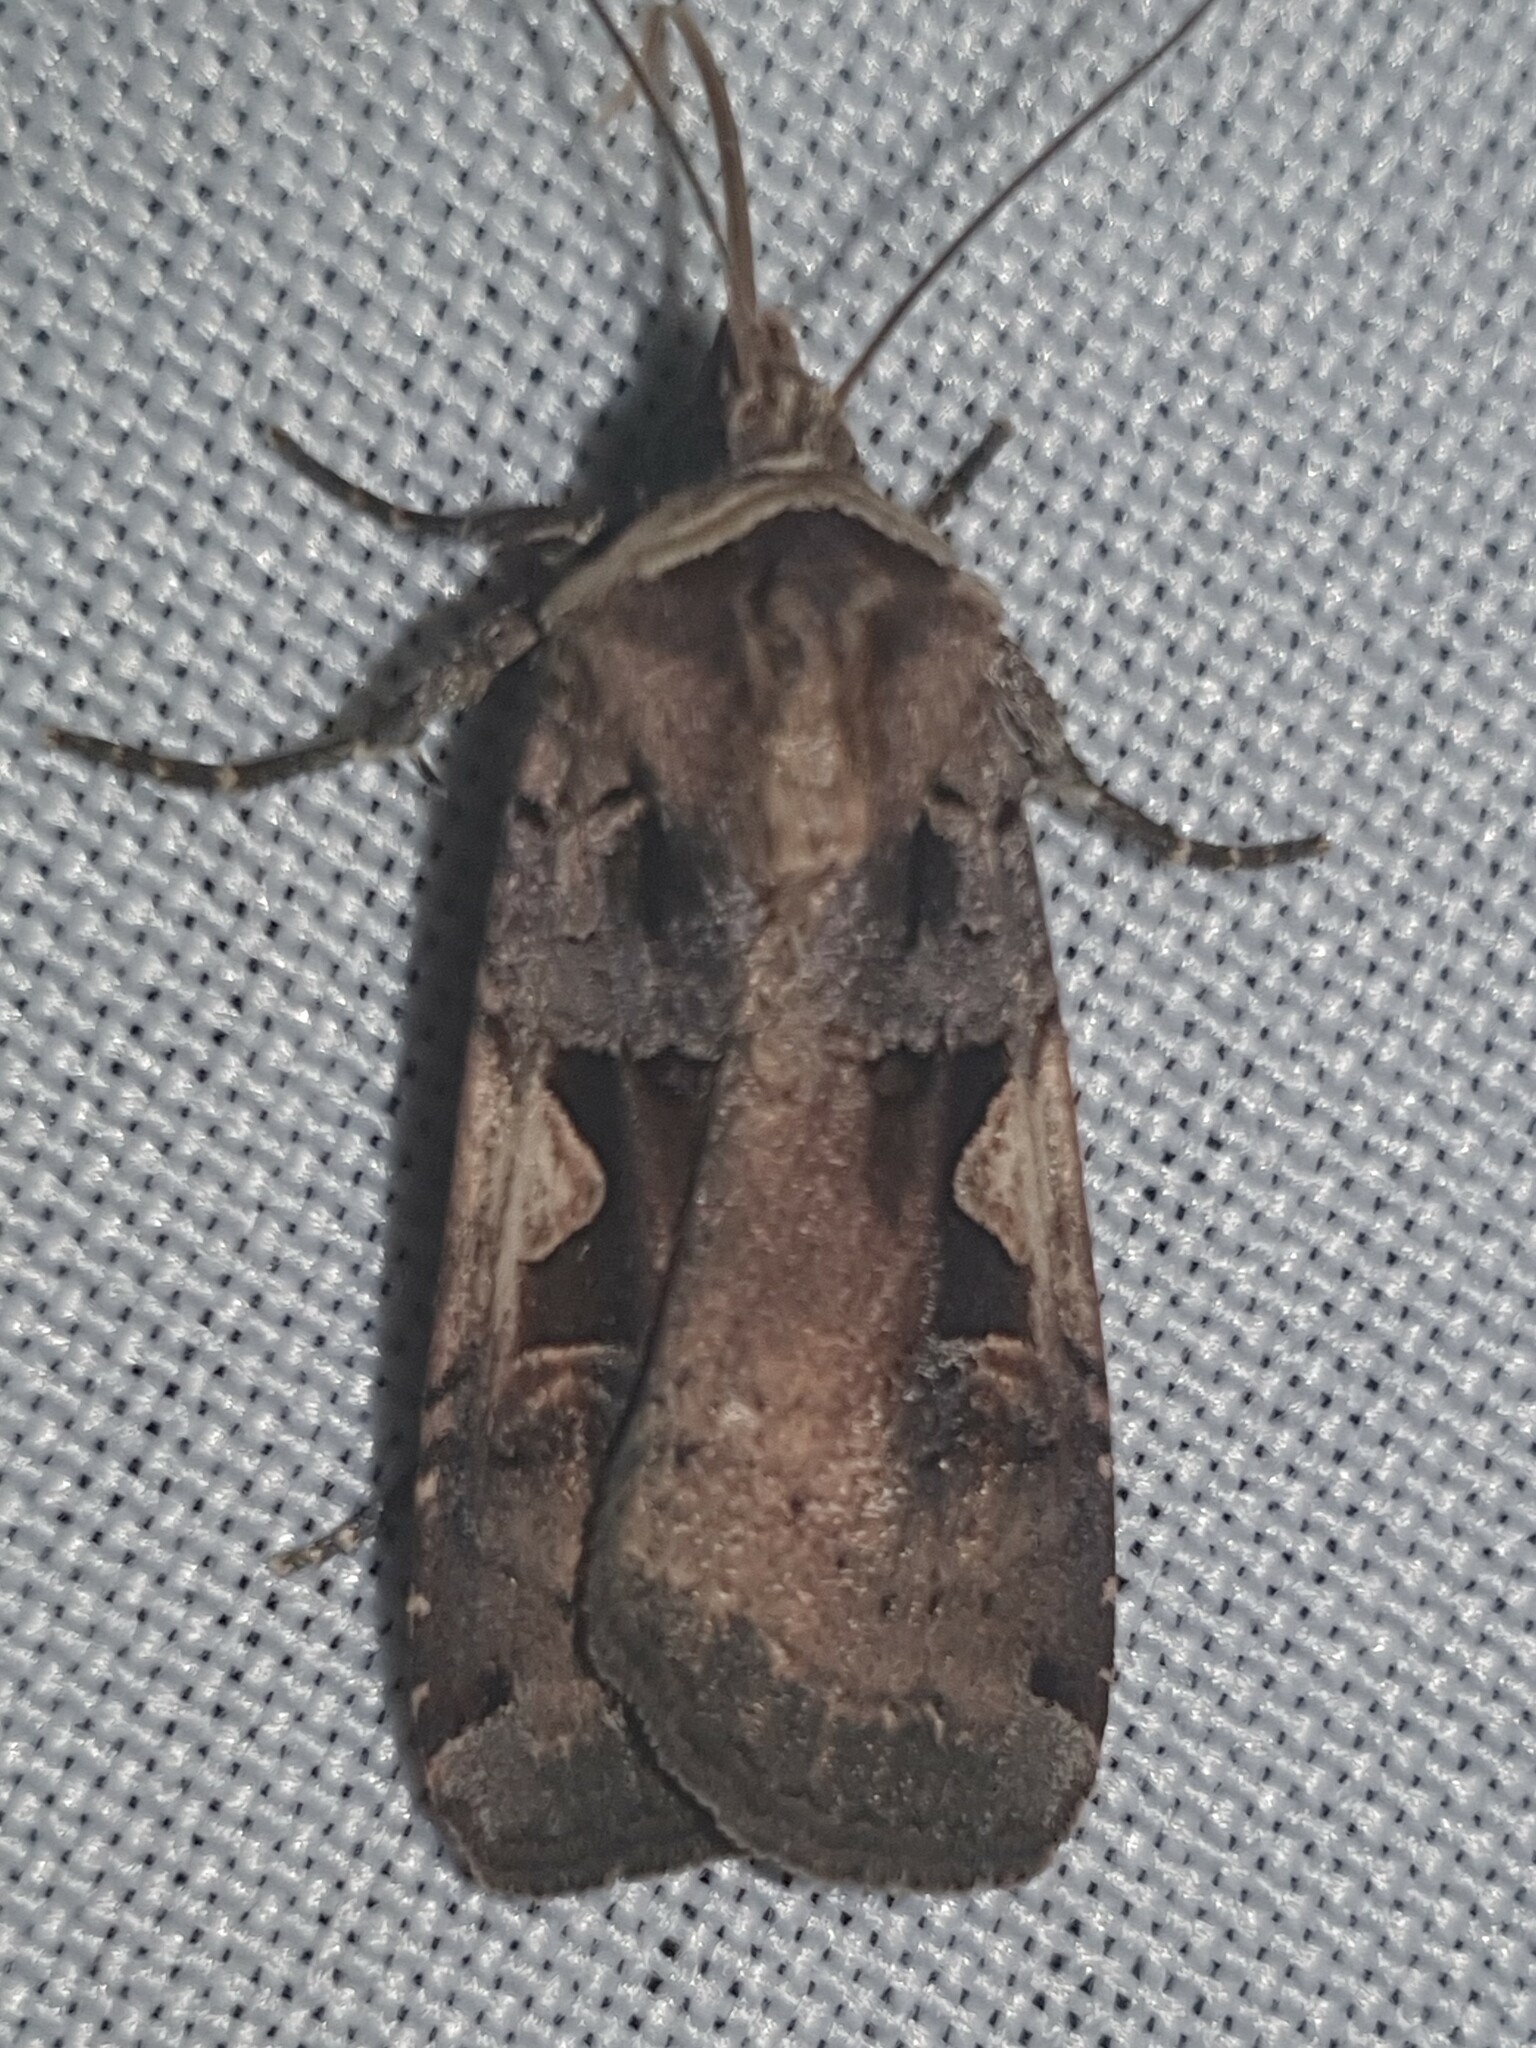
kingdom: Animalia
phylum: Arthropoda
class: Insecta
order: Lepidoptera
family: Noctuidae
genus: Xestia
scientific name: Xestia c-nigrum
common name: Setaceous hebrew character
